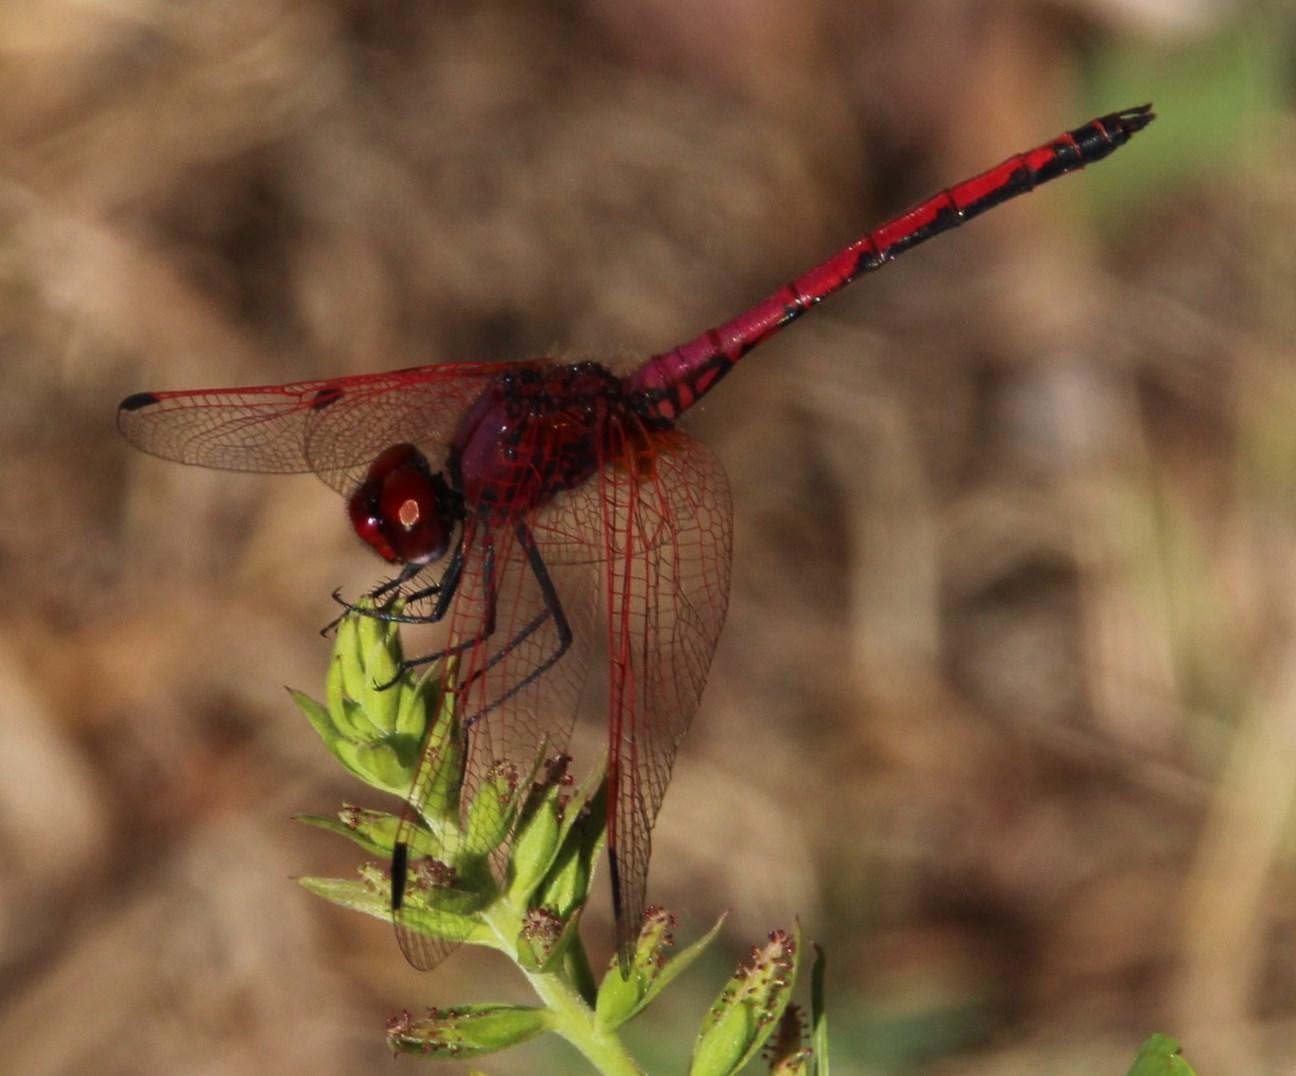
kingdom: Animalia
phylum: Arthropoda
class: Insecta
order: Odonata
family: Libellulidae
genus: Trithemis
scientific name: Trithemis arteriosa
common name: Red-veined dropwing
